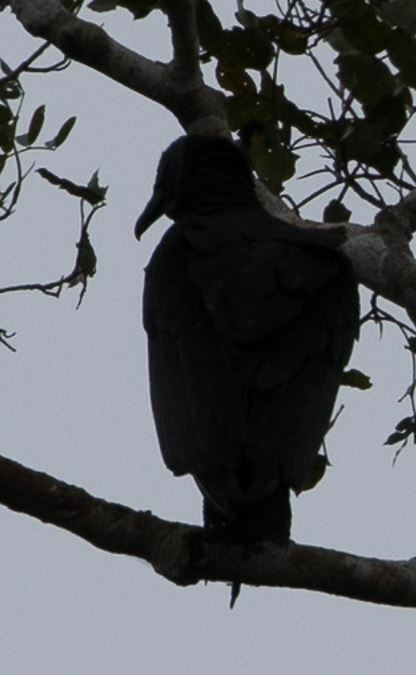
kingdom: Animalia
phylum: Chordata
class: Aves
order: Accipitriformes
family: Cathartidae
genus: Coragyps
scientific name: Coragyps atratus
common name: Black vulture
